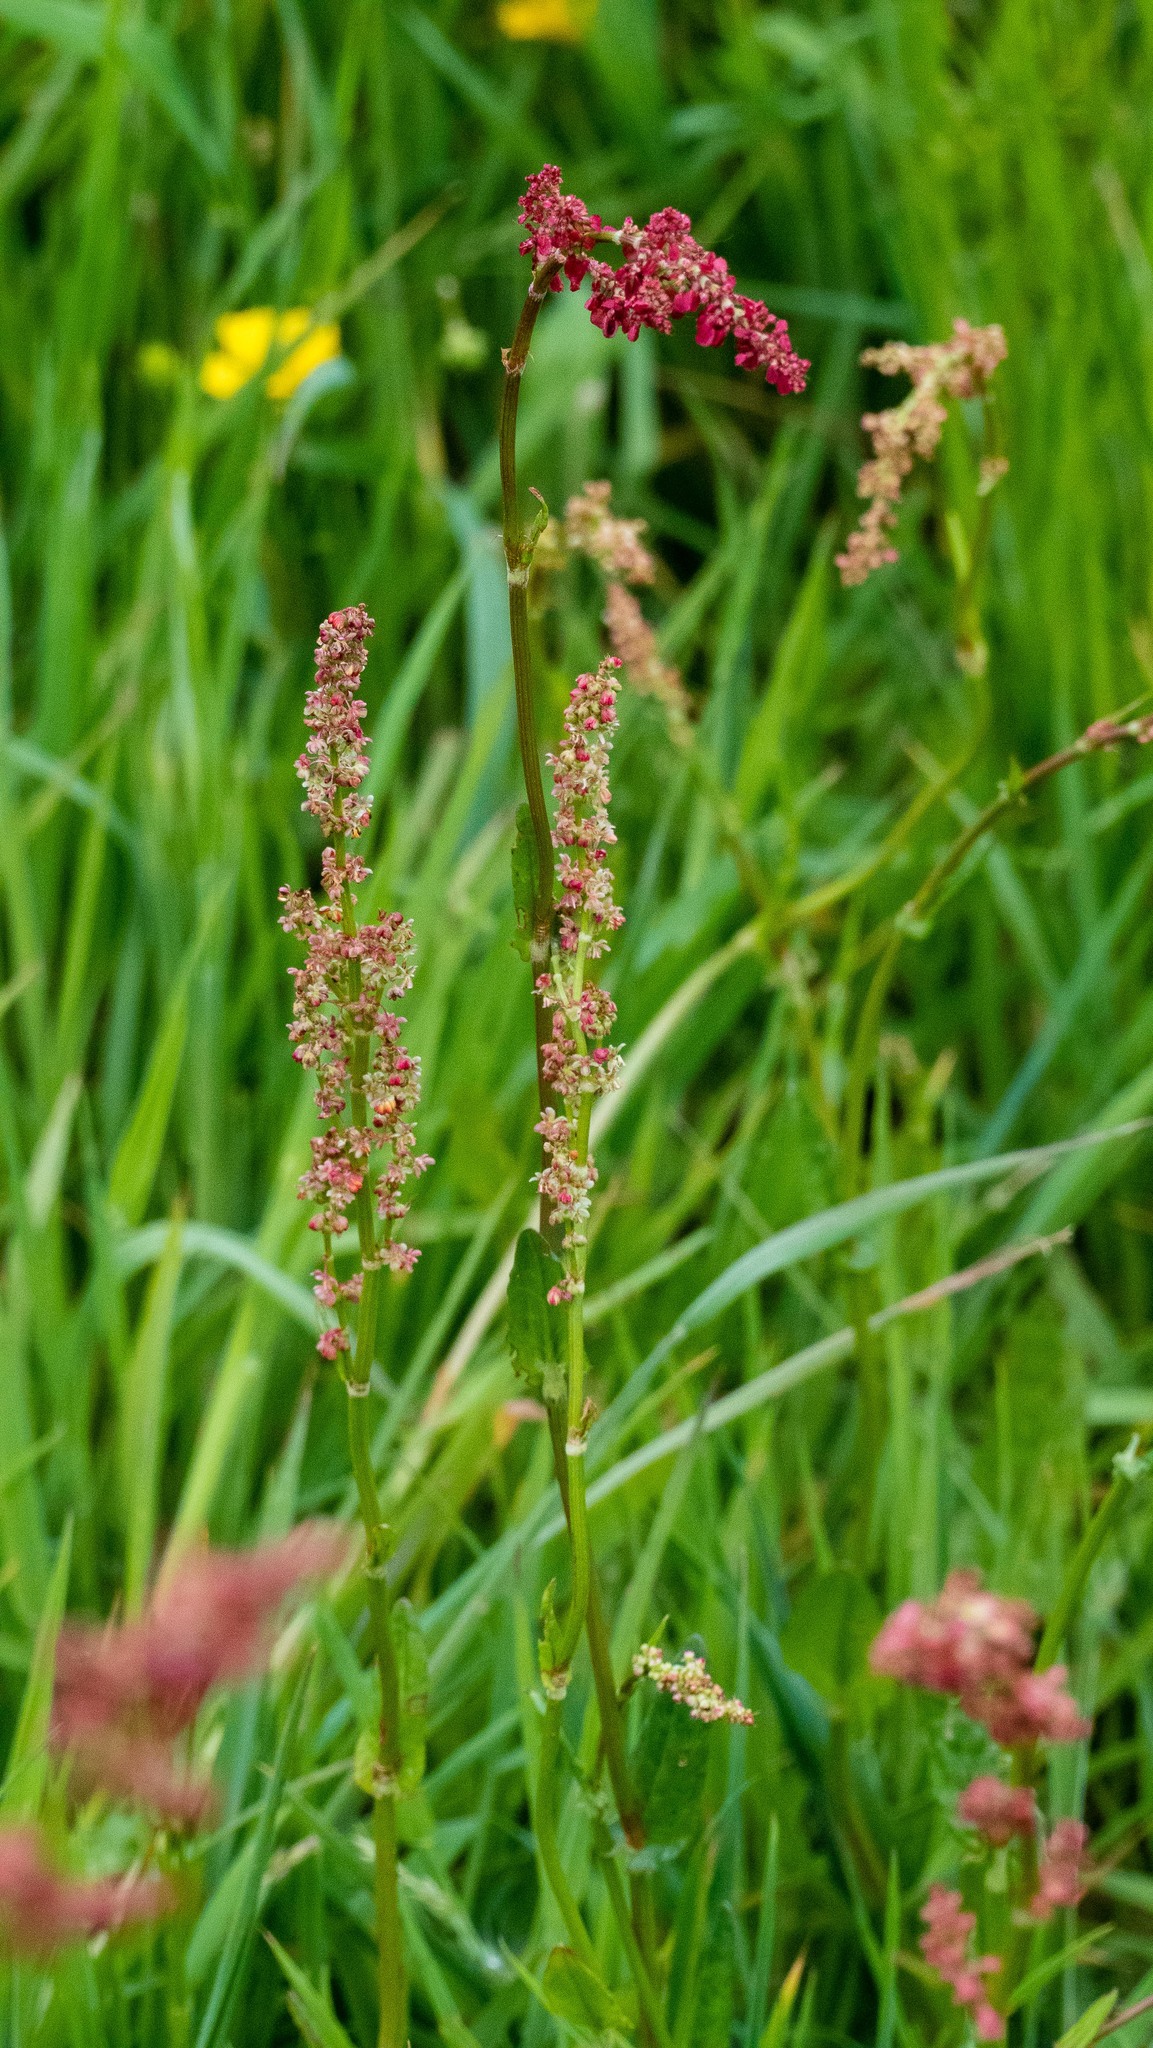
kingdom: Plantae
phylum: Tracheophyta
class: Magnoliopsida
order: Caryophyllales
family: Polygonaceae
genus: Rumex
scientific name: Rumex acetosa
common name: Garden sorrel
